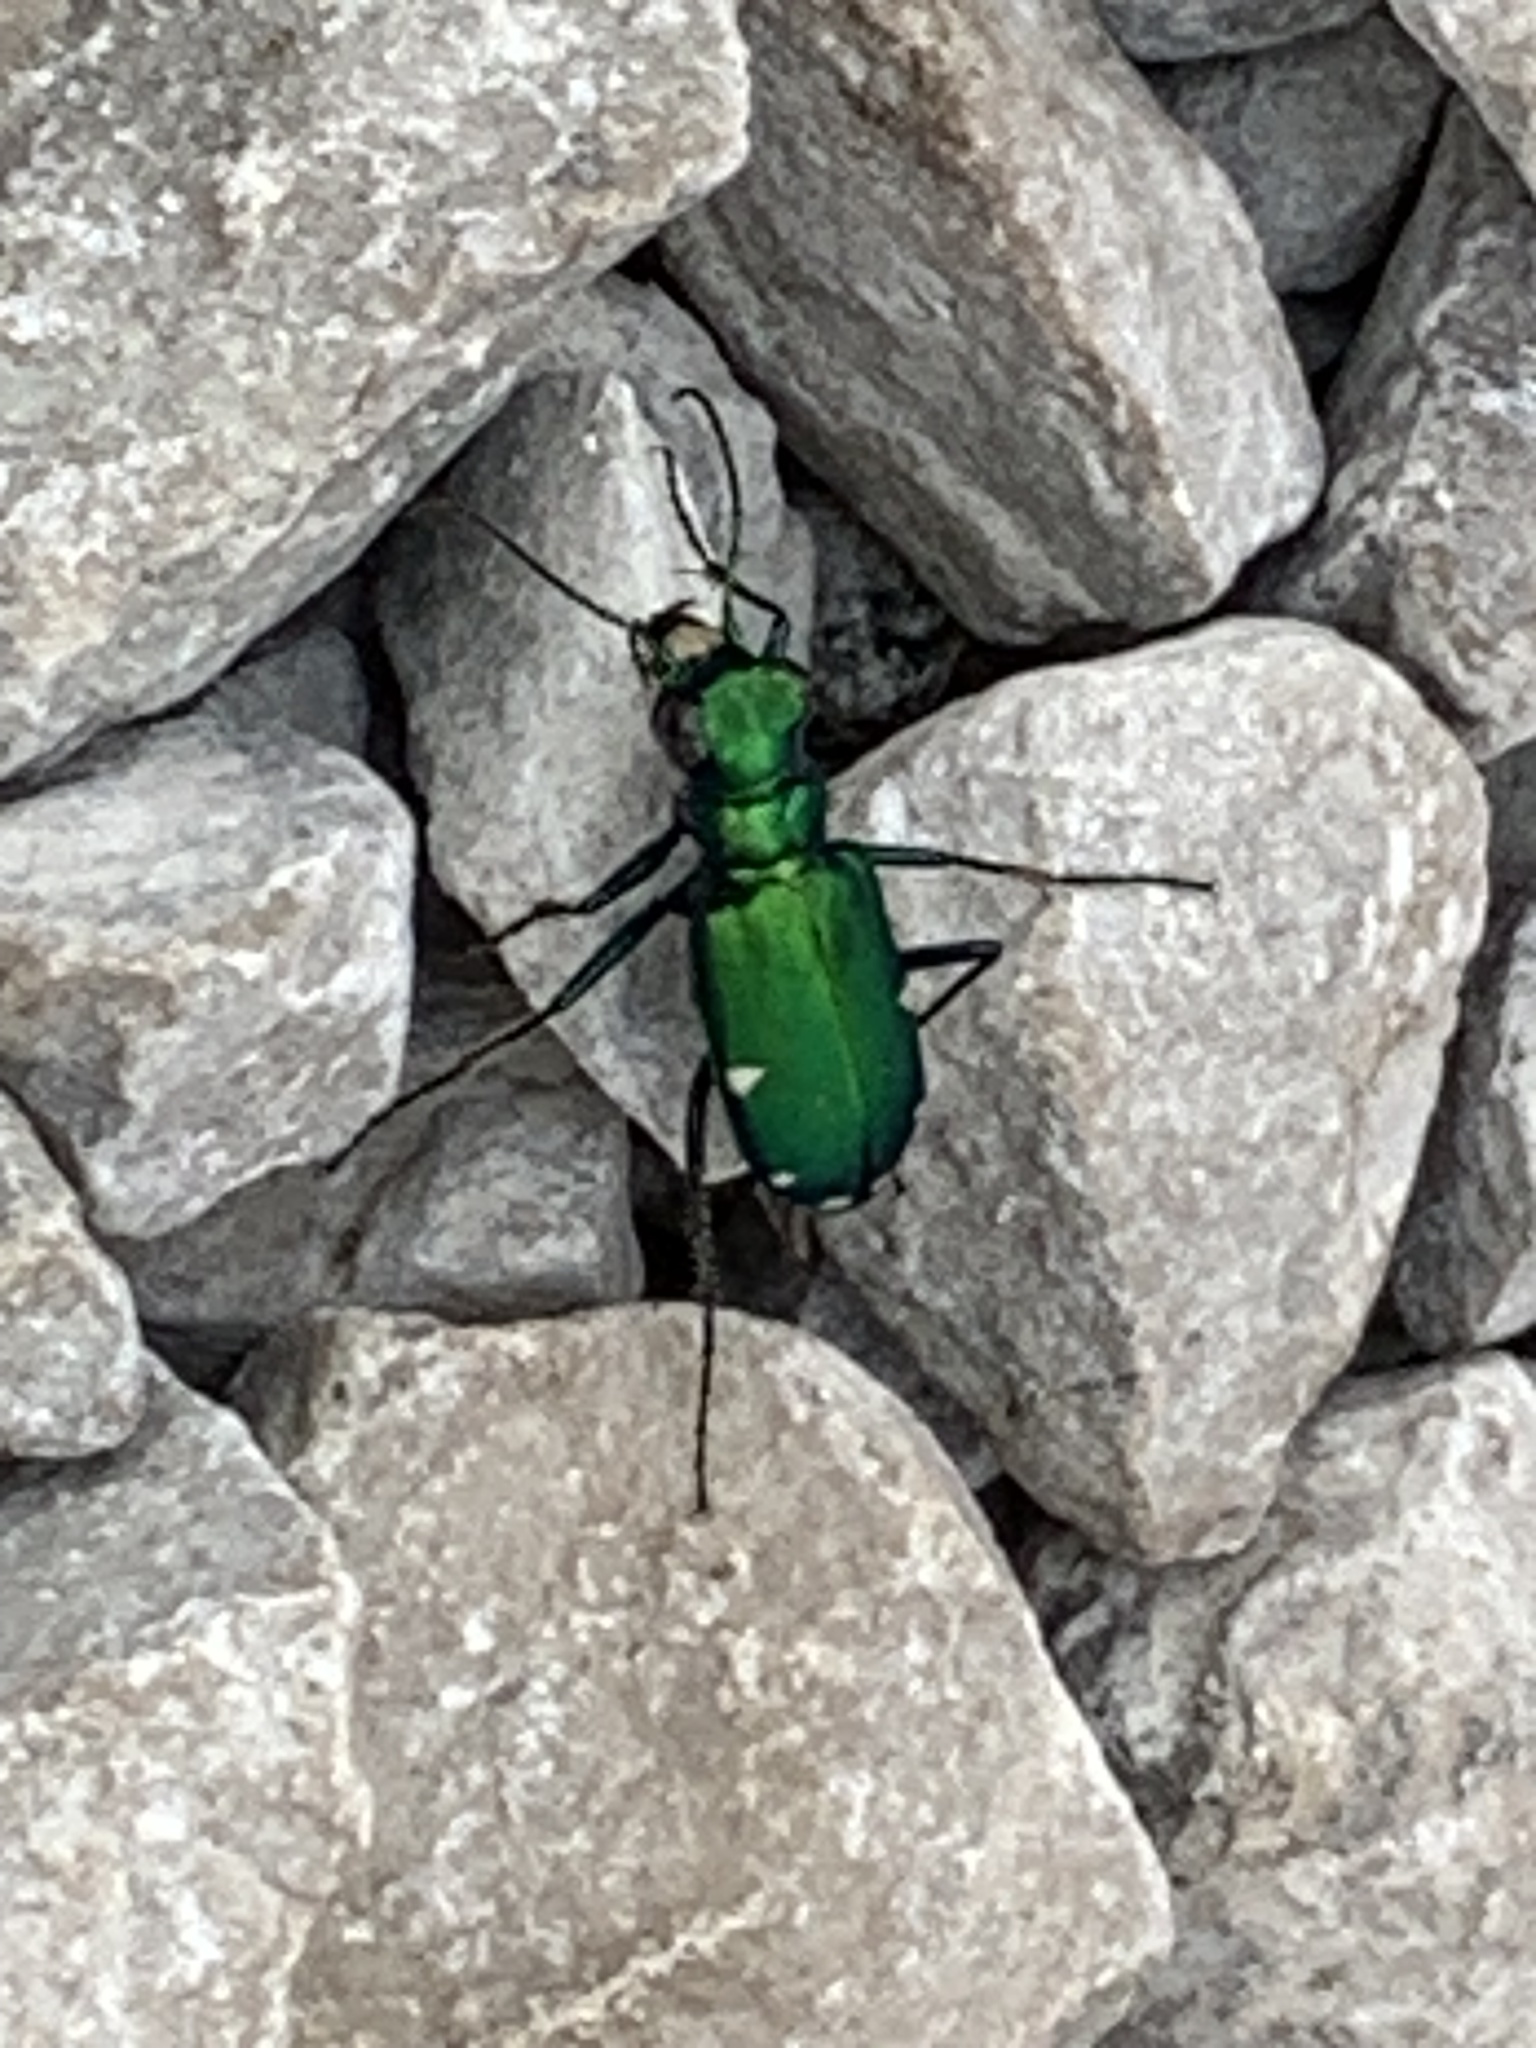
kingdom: Animalia
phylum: Arthropoda
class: Insecta
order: Coleoptera
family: Carabidae
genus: Cicindela
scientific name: Cicindela sexguttata
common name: Six-spotted tiger beetle
